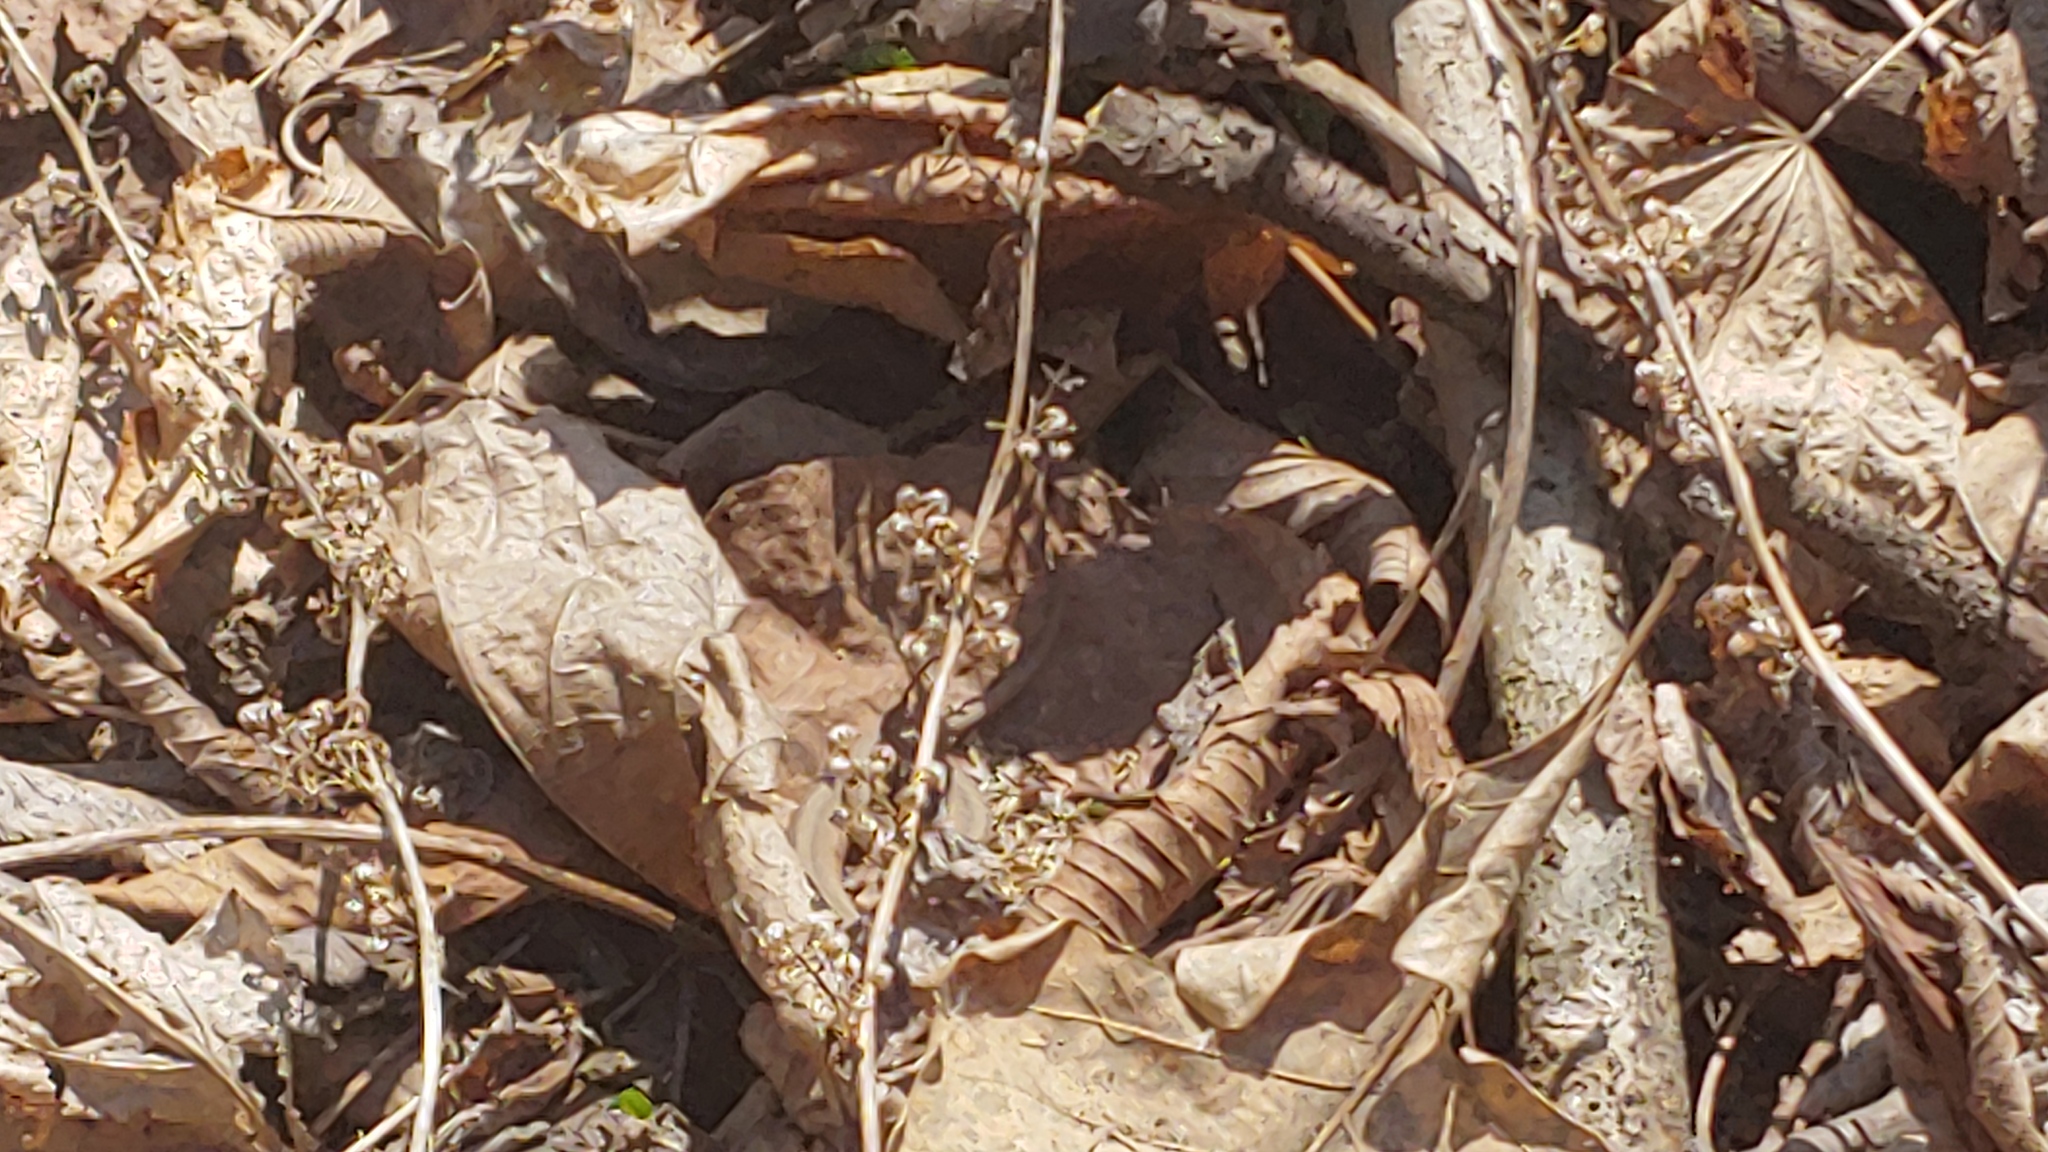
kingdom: Animalia
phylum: Chordata
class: Squamata
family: Colubridae
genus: Storeria
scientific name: Storeria dekayi
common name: (dekay’s) brown snake
